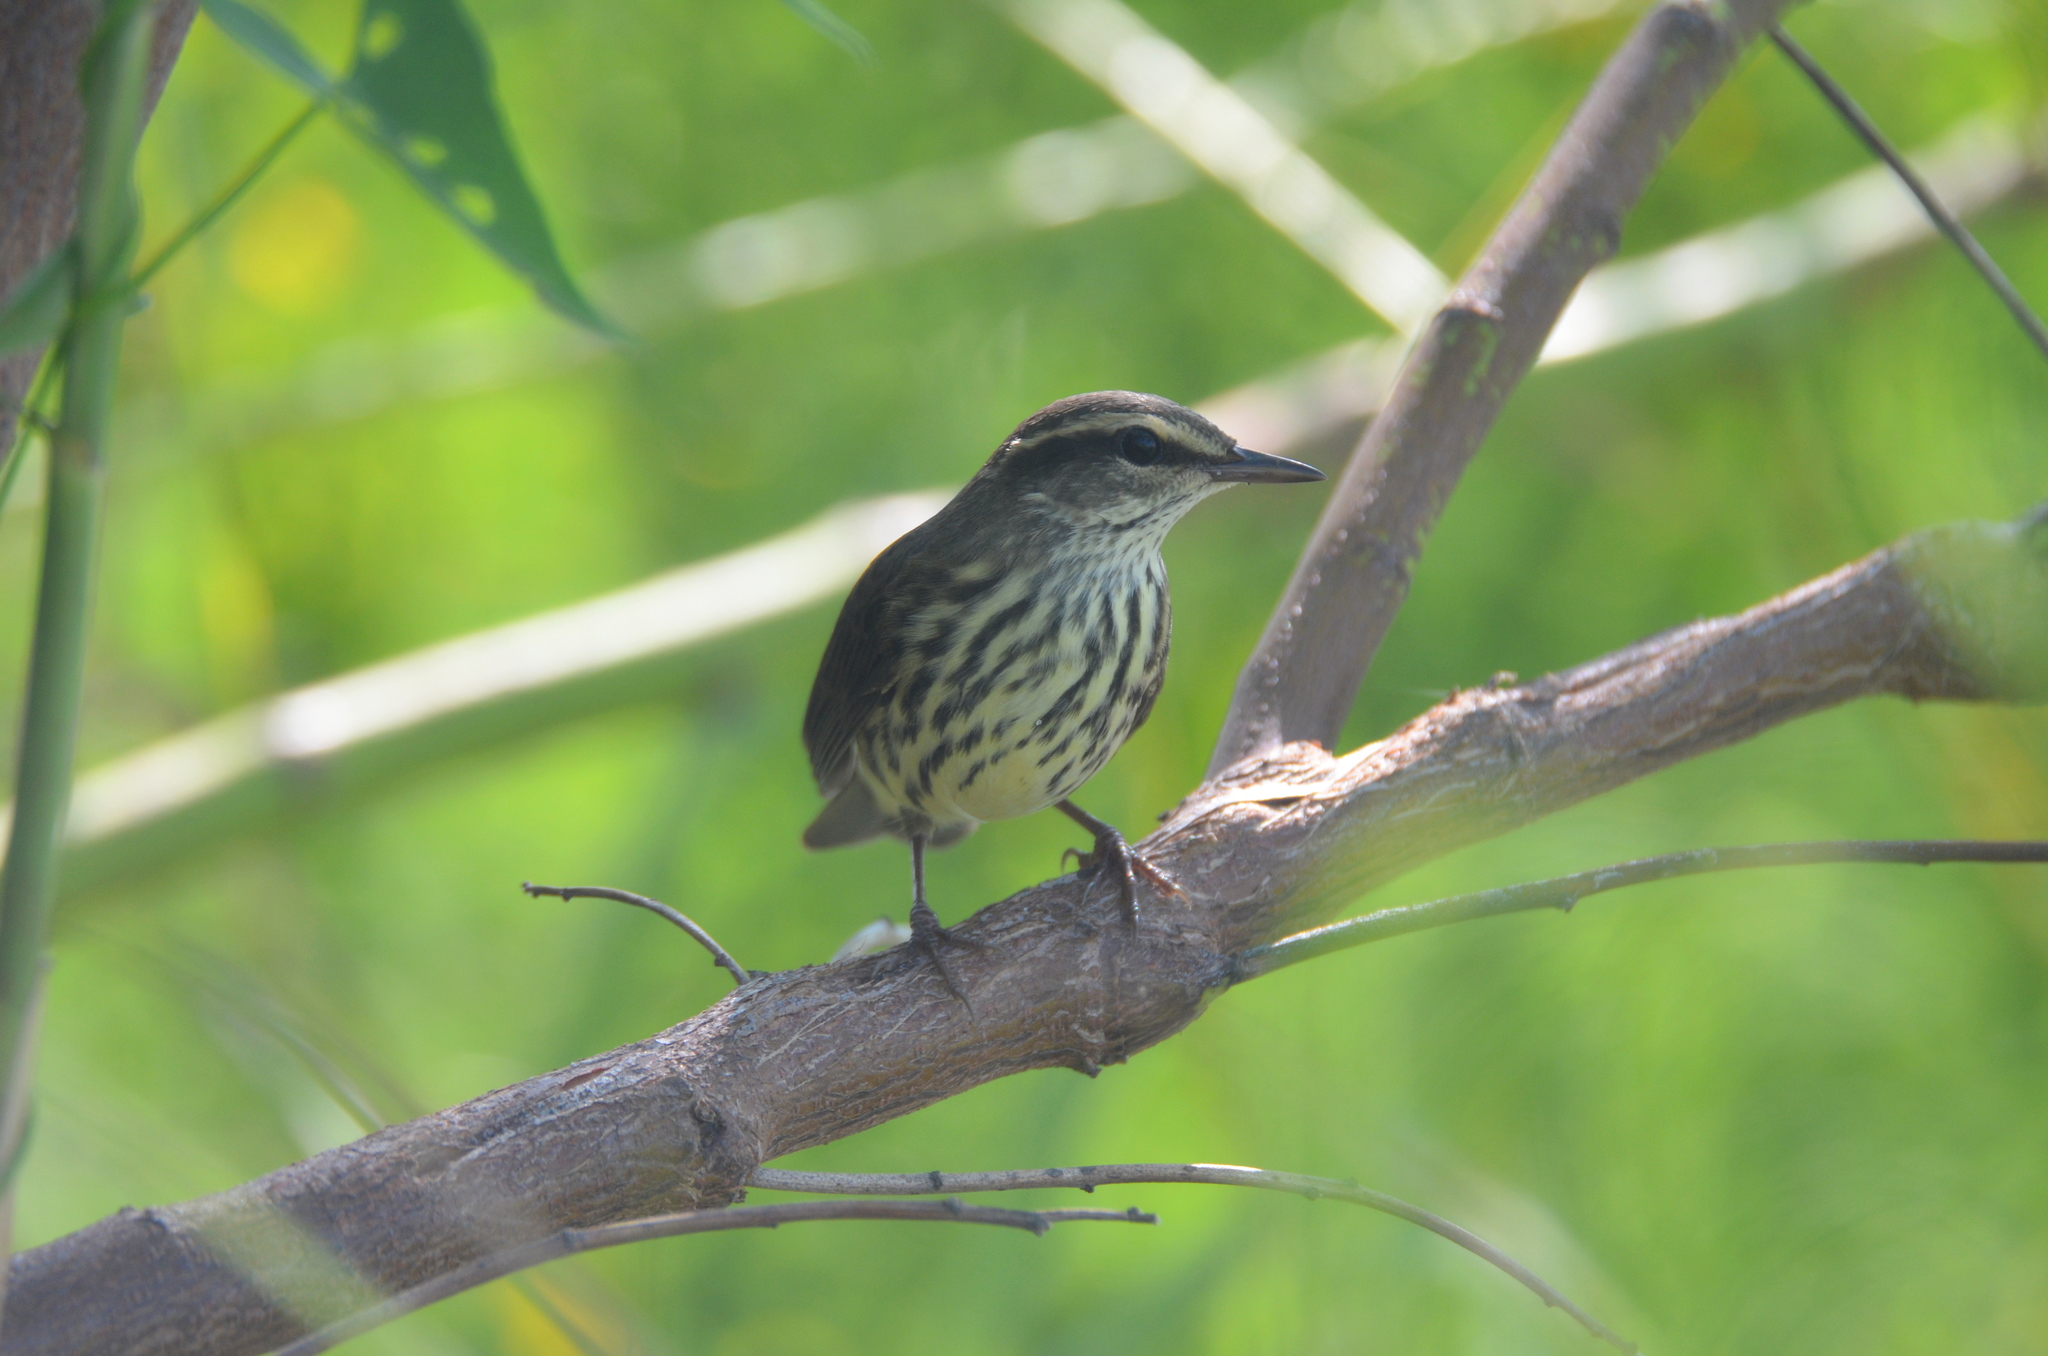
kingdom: Animalia
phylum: Chordata
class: Aves
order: Passeriformes
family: Parulidae
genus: Parkesia
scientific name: Parkesia noveboracensis
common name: Northern waterthrush
